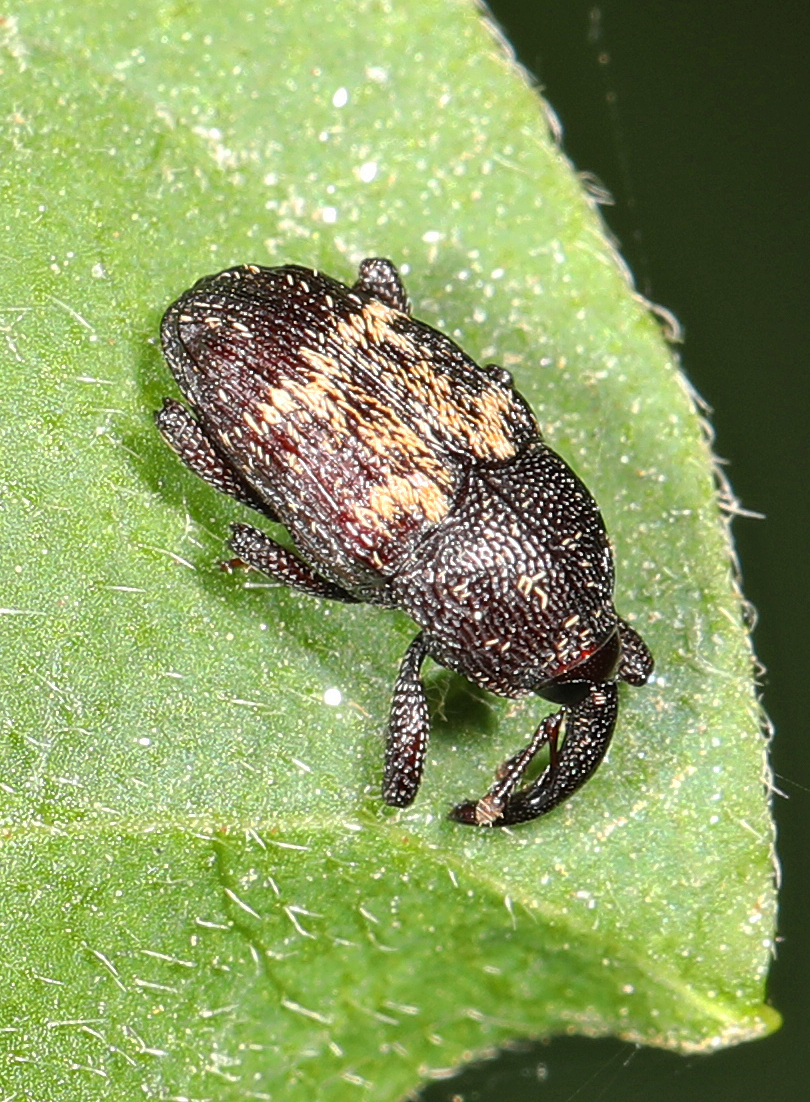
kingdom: Animalia
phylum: Arthropoda
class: Insecta
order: Coleoptera
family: Curculionidae
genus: Glyptobaris
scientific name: Glyptobaris lecontei
